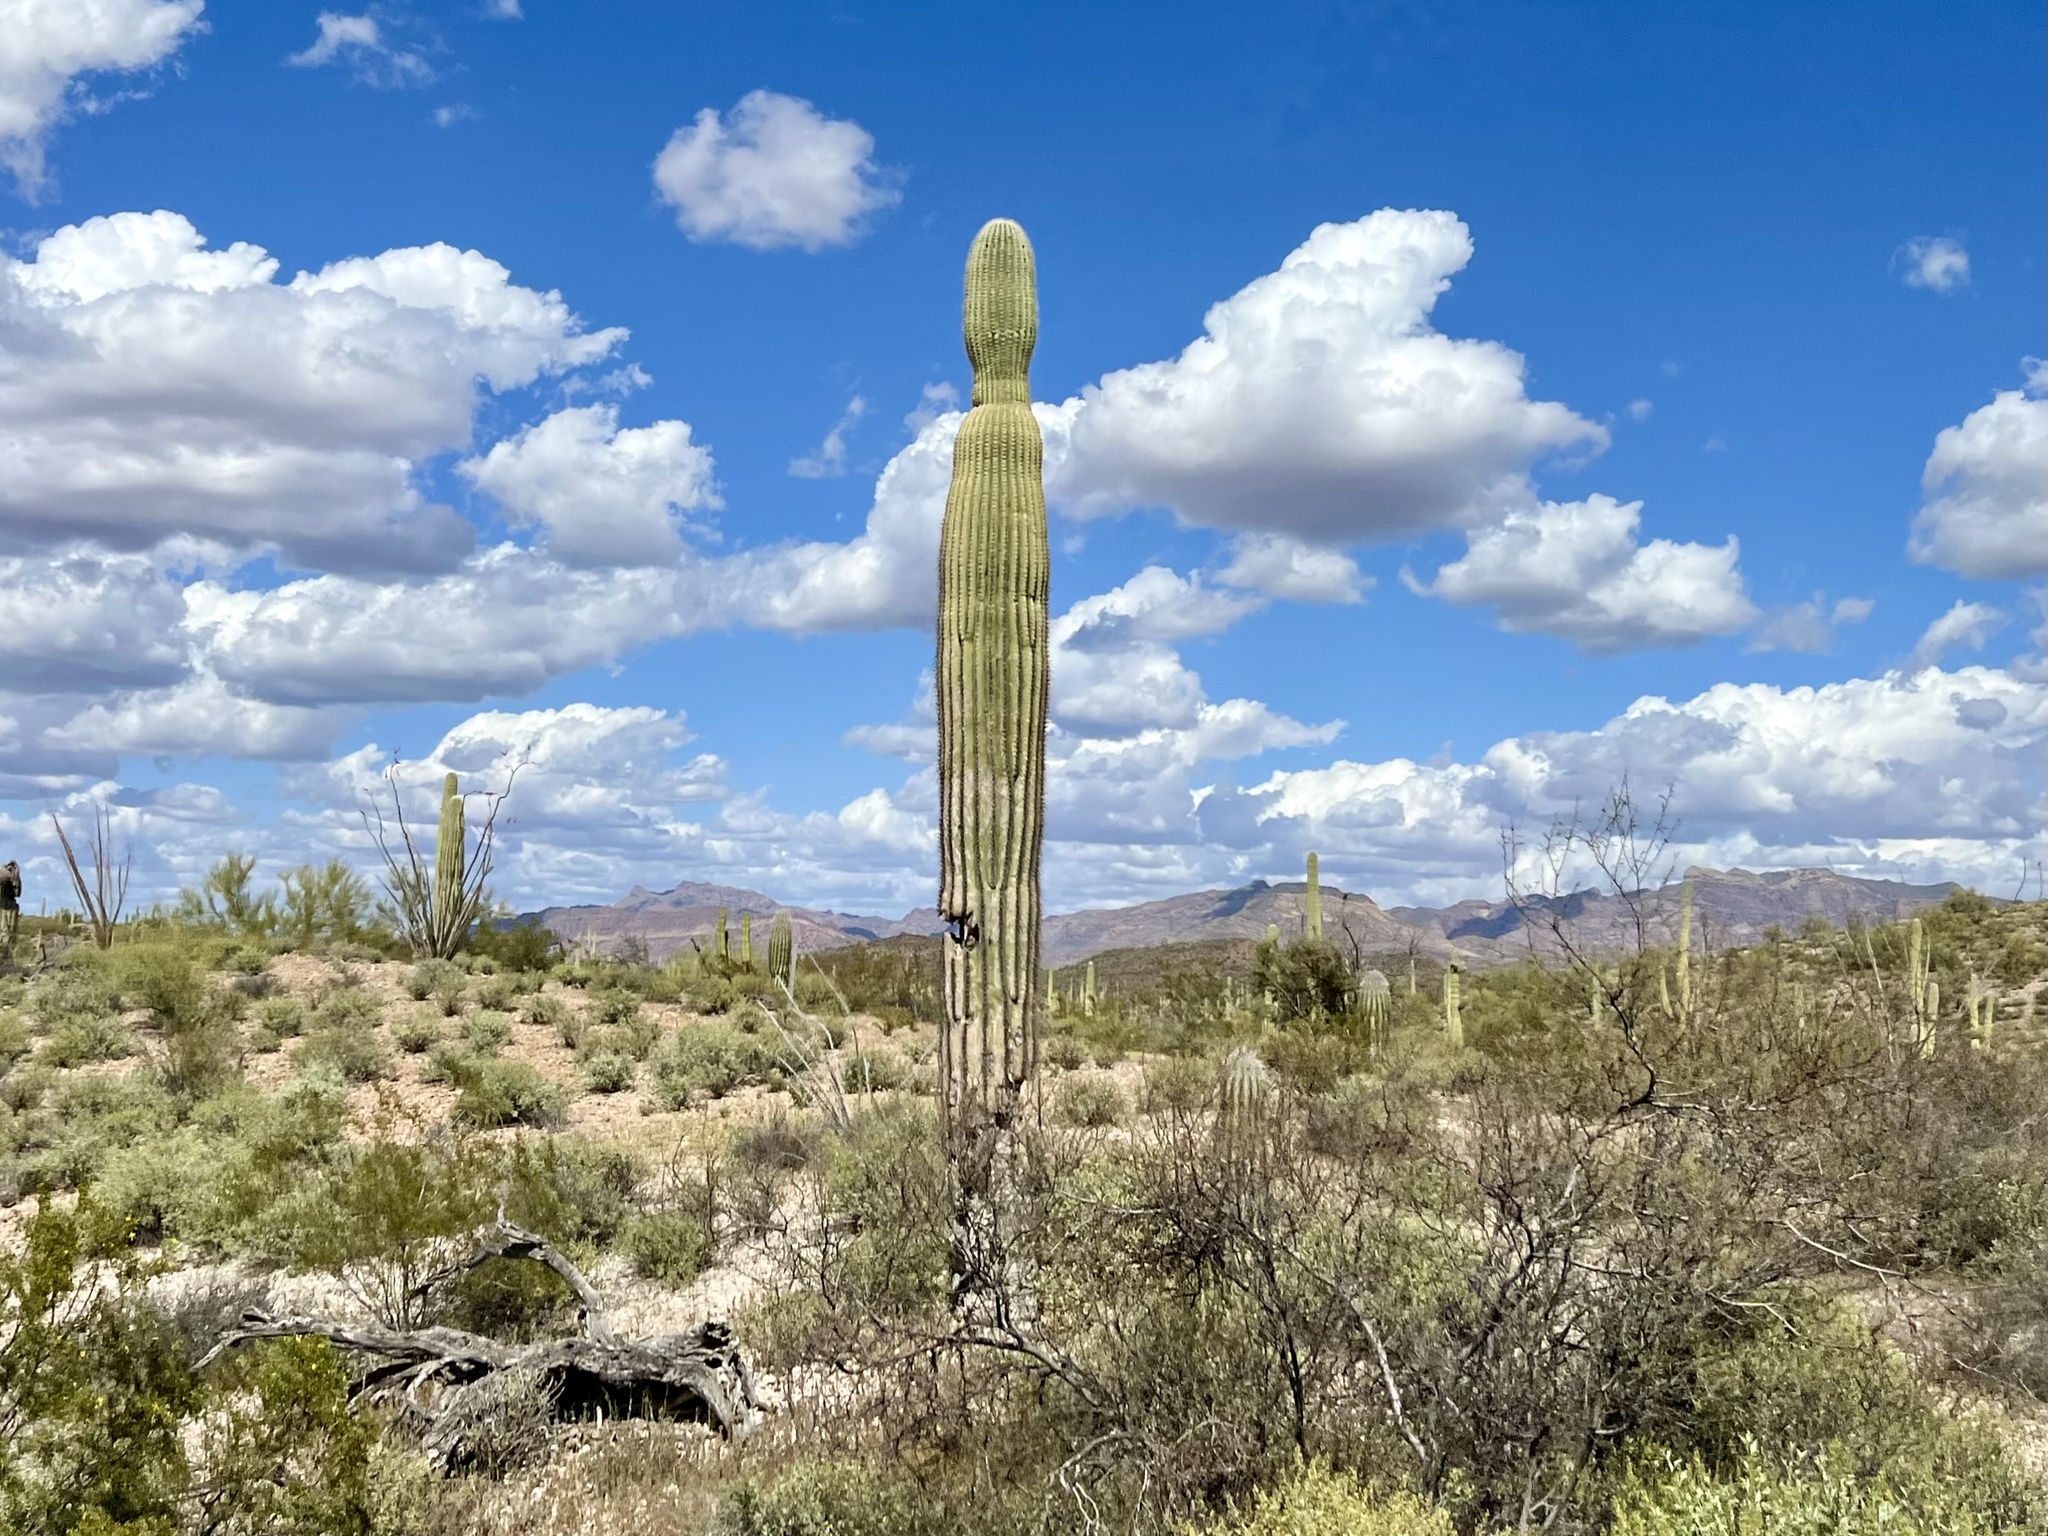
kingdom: Plantae
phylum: Tracheophyta
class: Magnoliopsida
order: Caryophyllales
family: Cactaceae
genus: Carnegiea
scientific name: Carnegiea gigantea
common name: Saguaro
